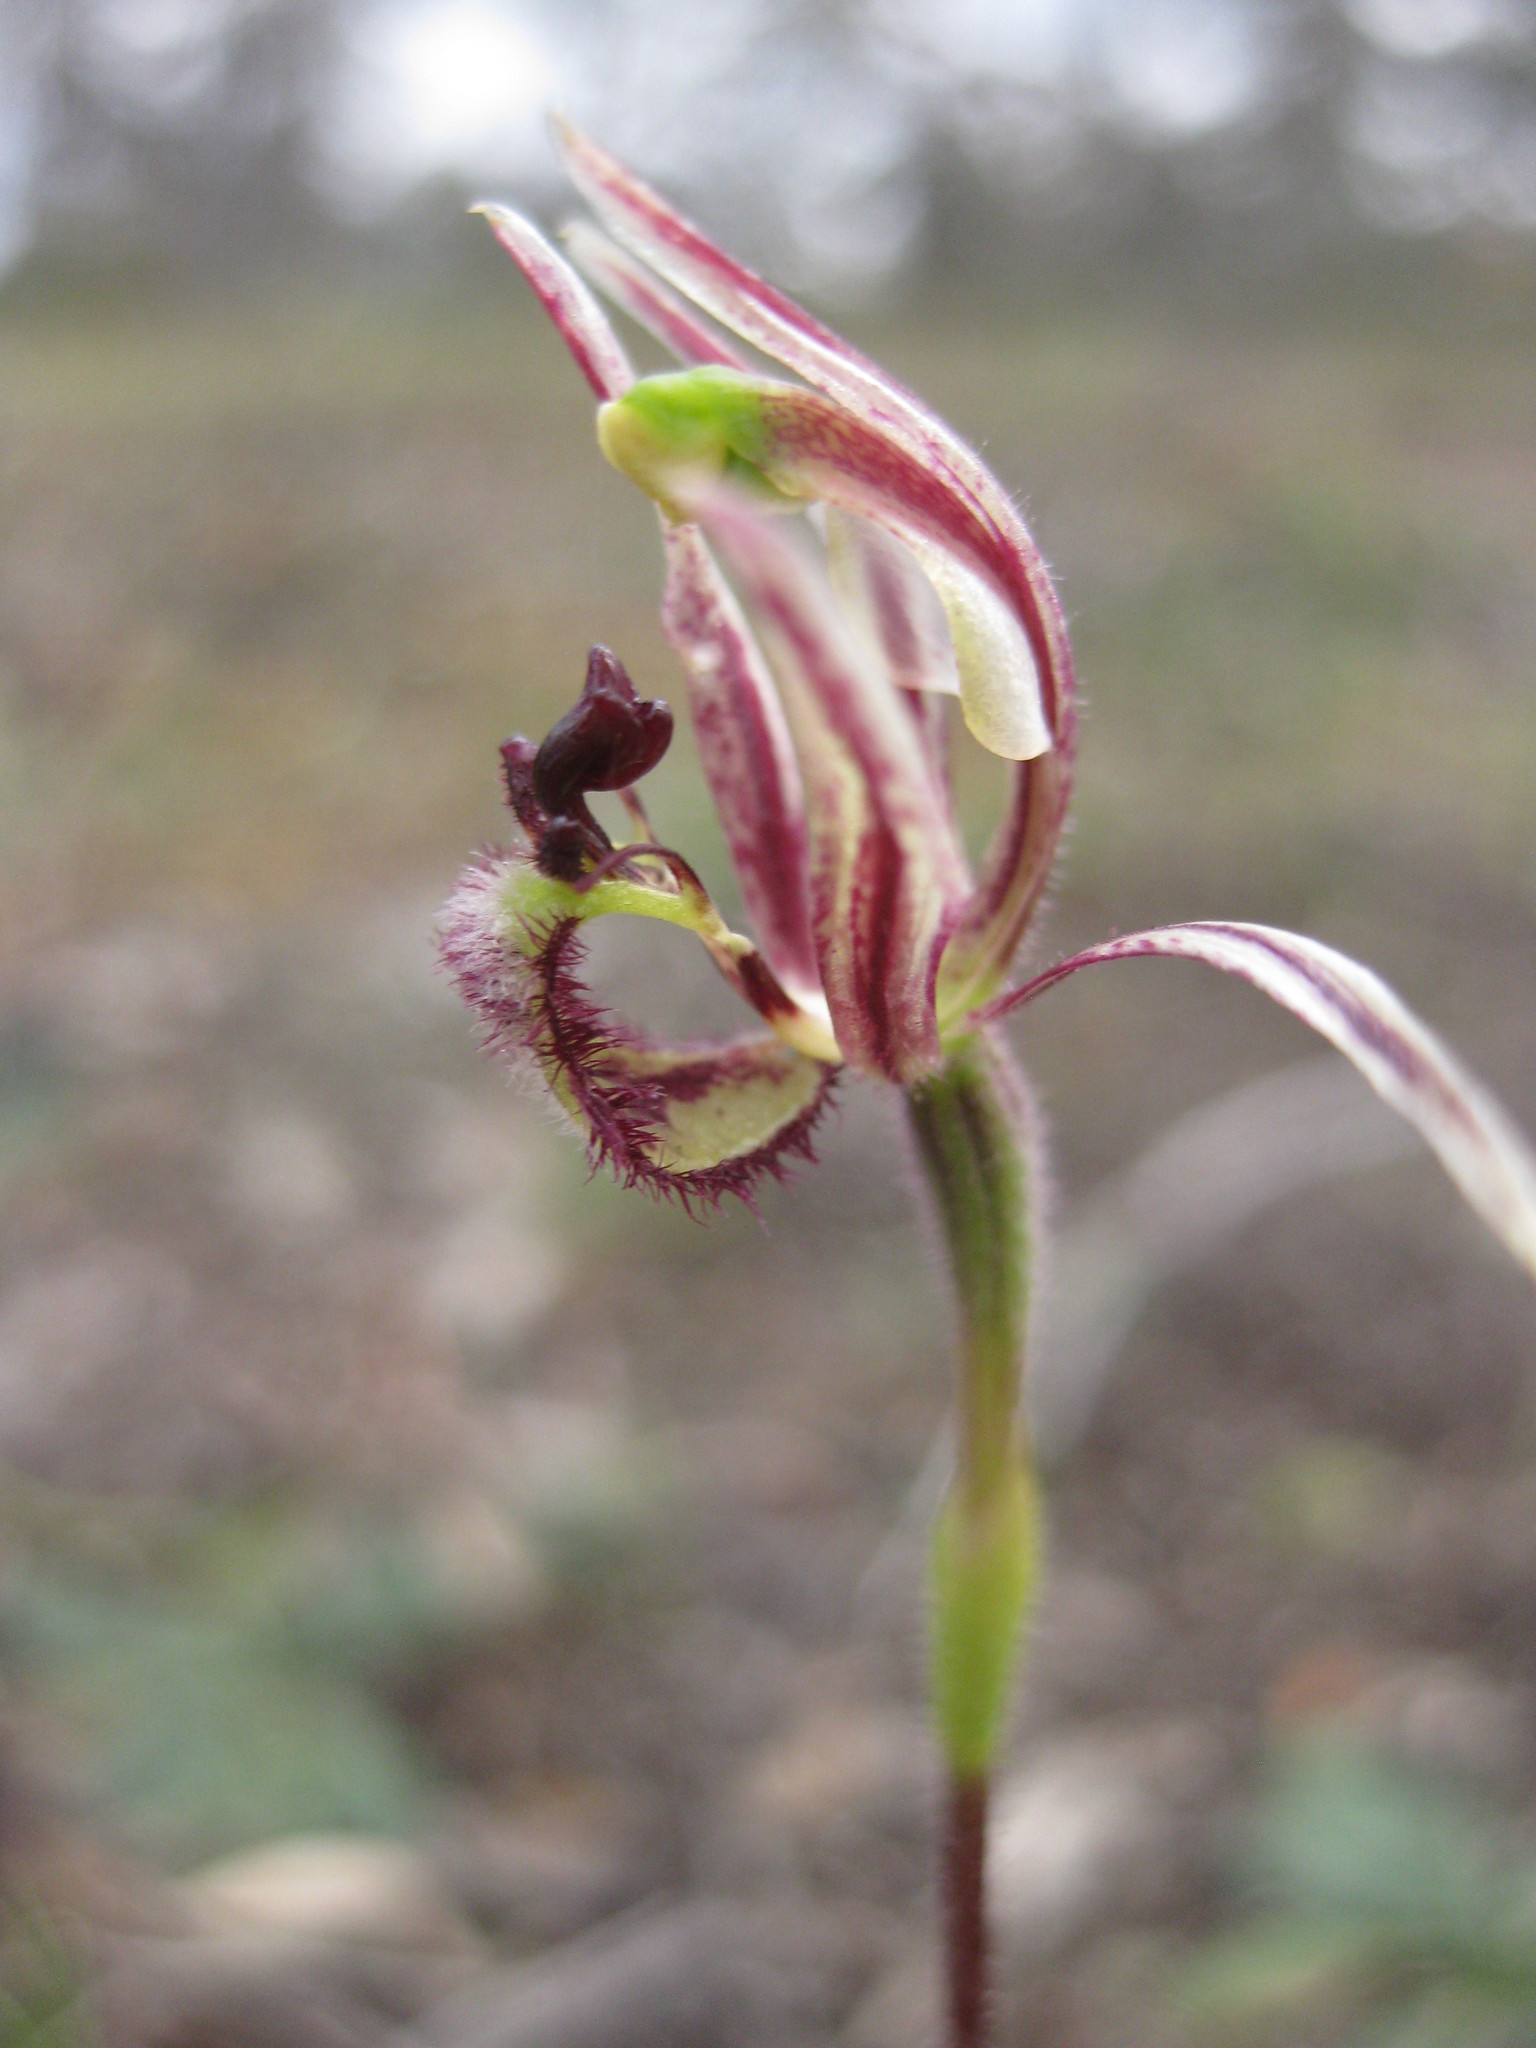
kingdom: Plantae
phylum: Tracheophyta
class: Liliopsida
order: Asparagales
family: Orchidaceae
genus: Caladenia
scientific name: Caladenia barbarossa
